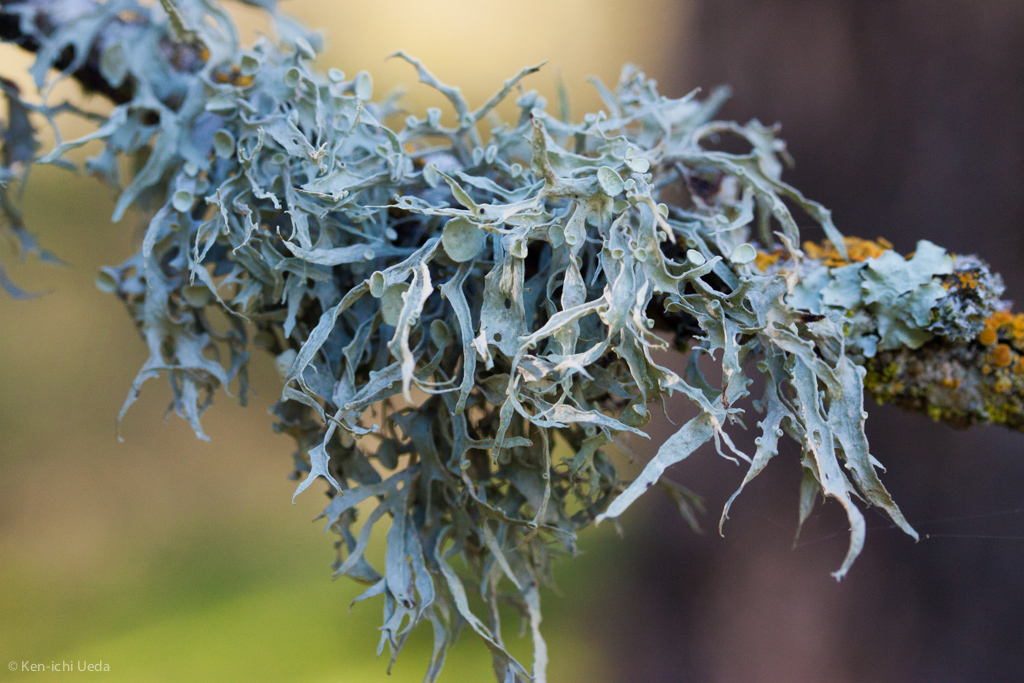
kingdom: Fungi
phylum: Ascomycota
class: Lecanoromycetes
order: Lecanorales
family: Ramalinaceae
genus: Ramalina
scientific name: Ramalina leptocarpha
